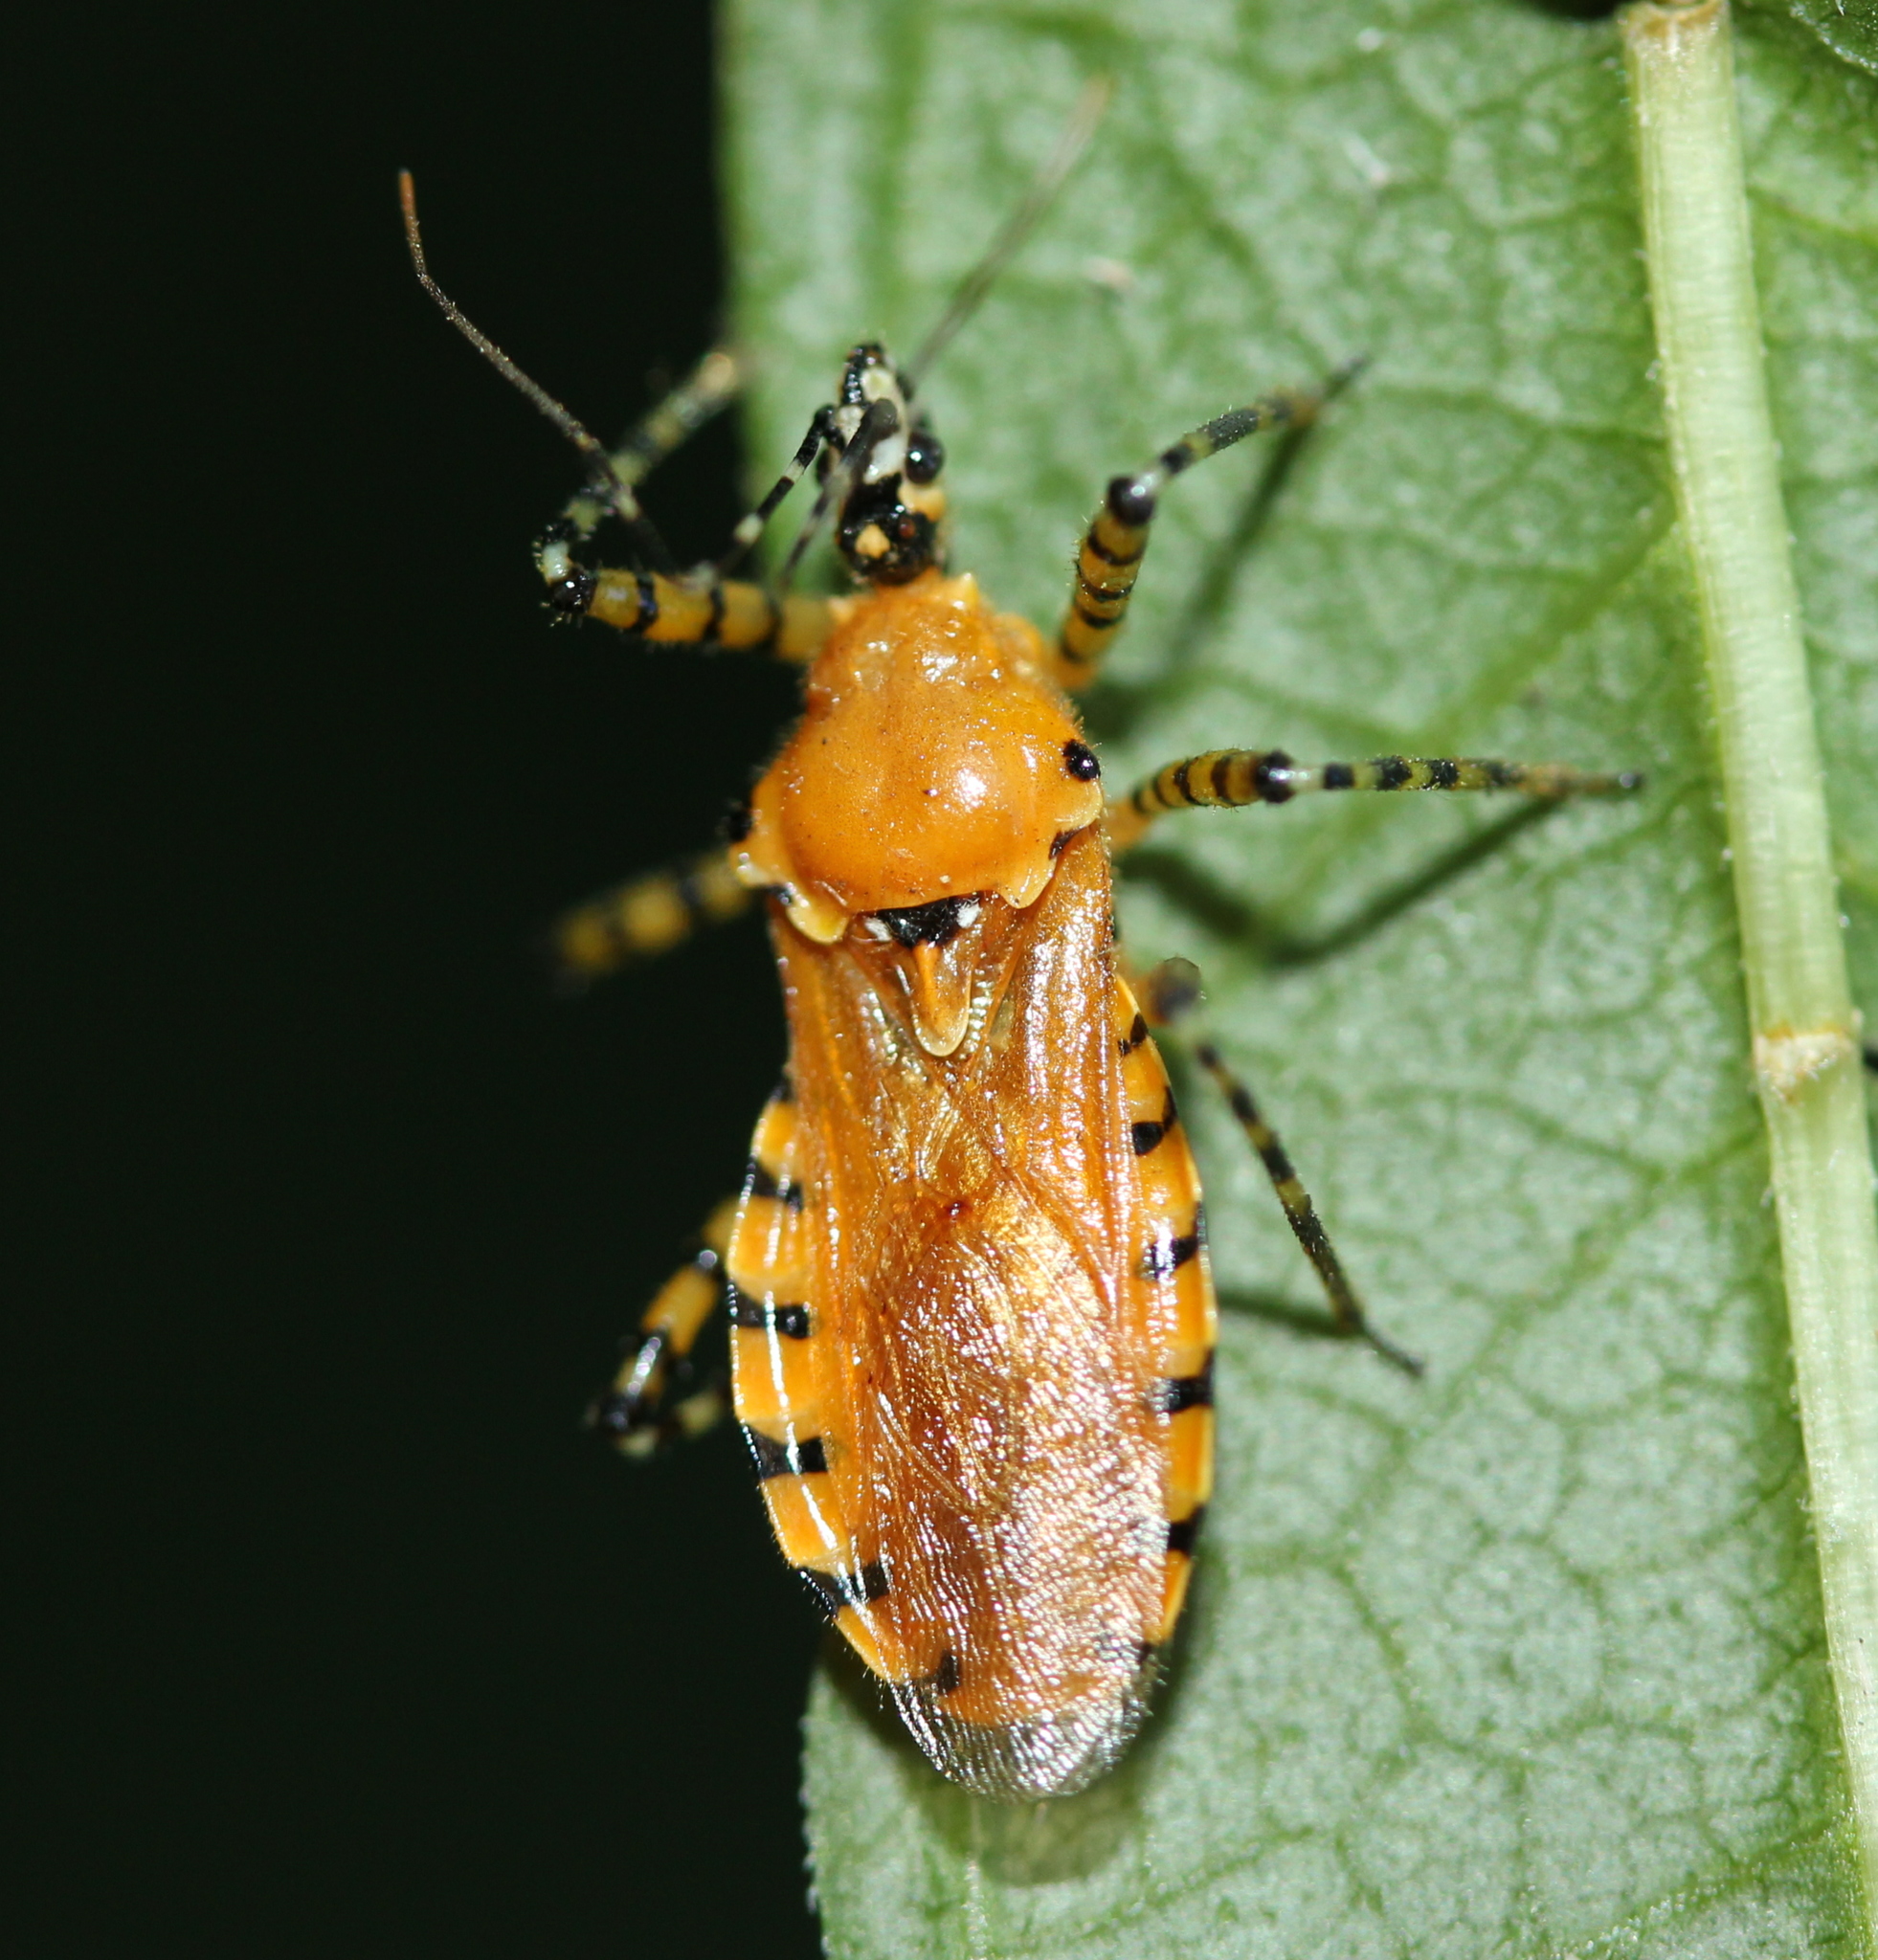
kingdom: Animalia
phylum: Arthropoda
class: Insecta
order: Hemiptera
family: Reduviidae
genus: Pselliopus
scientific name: Pselliopus barberi
